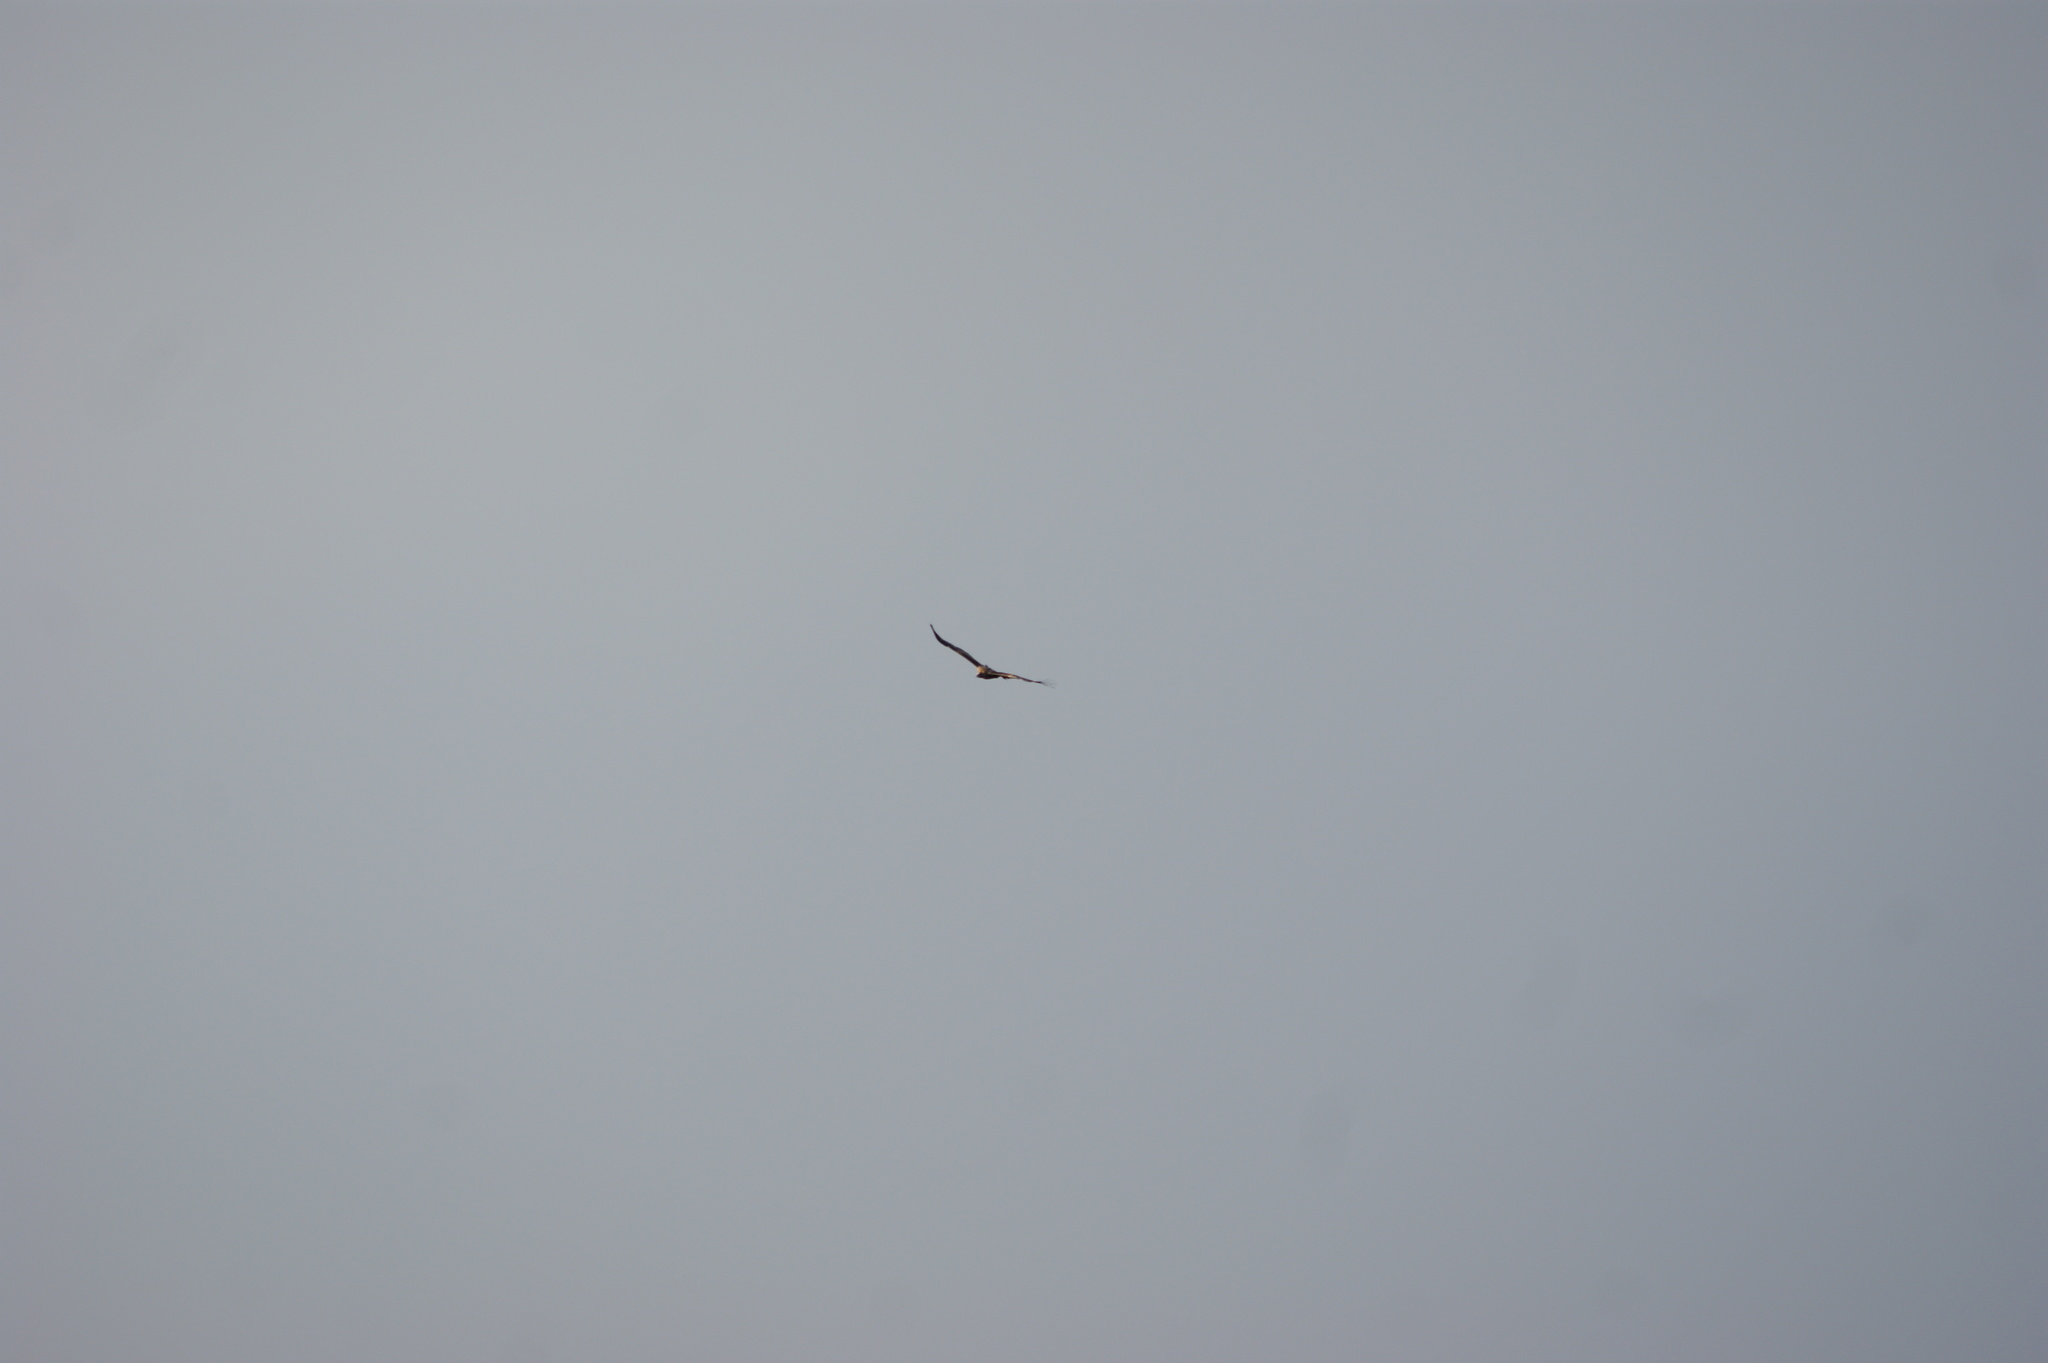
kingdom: Animalia
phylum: Chordata
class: Aves
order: Accipitriformes
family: Accipitridae
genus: Aquila
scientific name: Aquila audax
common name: Wedge-tailed eagle
